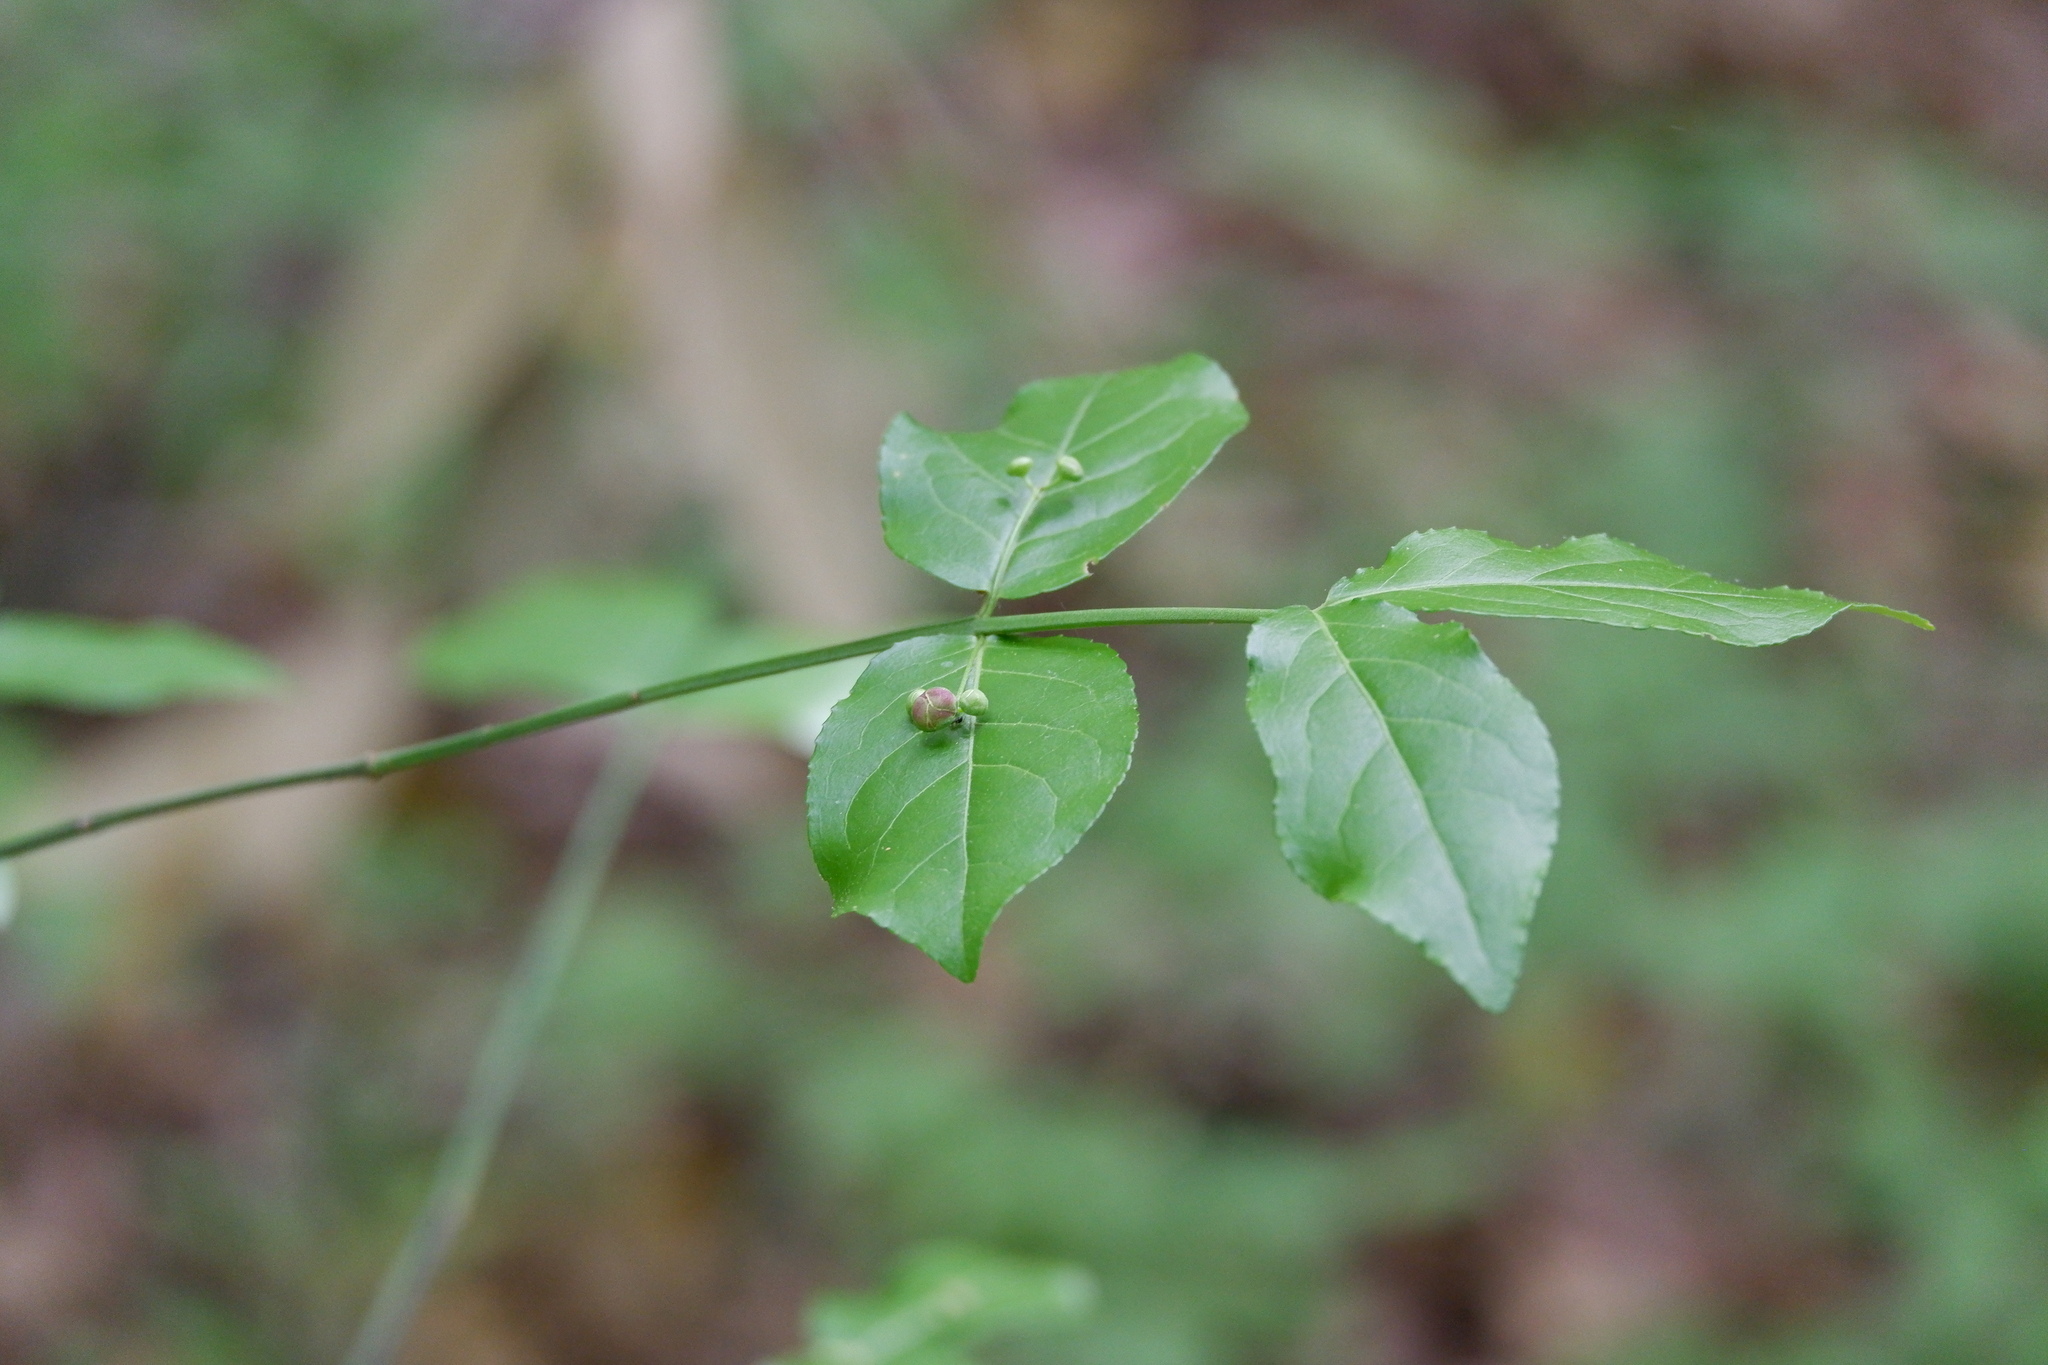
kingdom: Plantae
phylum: Tracheophyta
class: Magnoliopsida
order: Celastrales
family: Celastraceae
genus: Euonymus
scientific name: Euonymus americanus
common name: Bursting-heart
